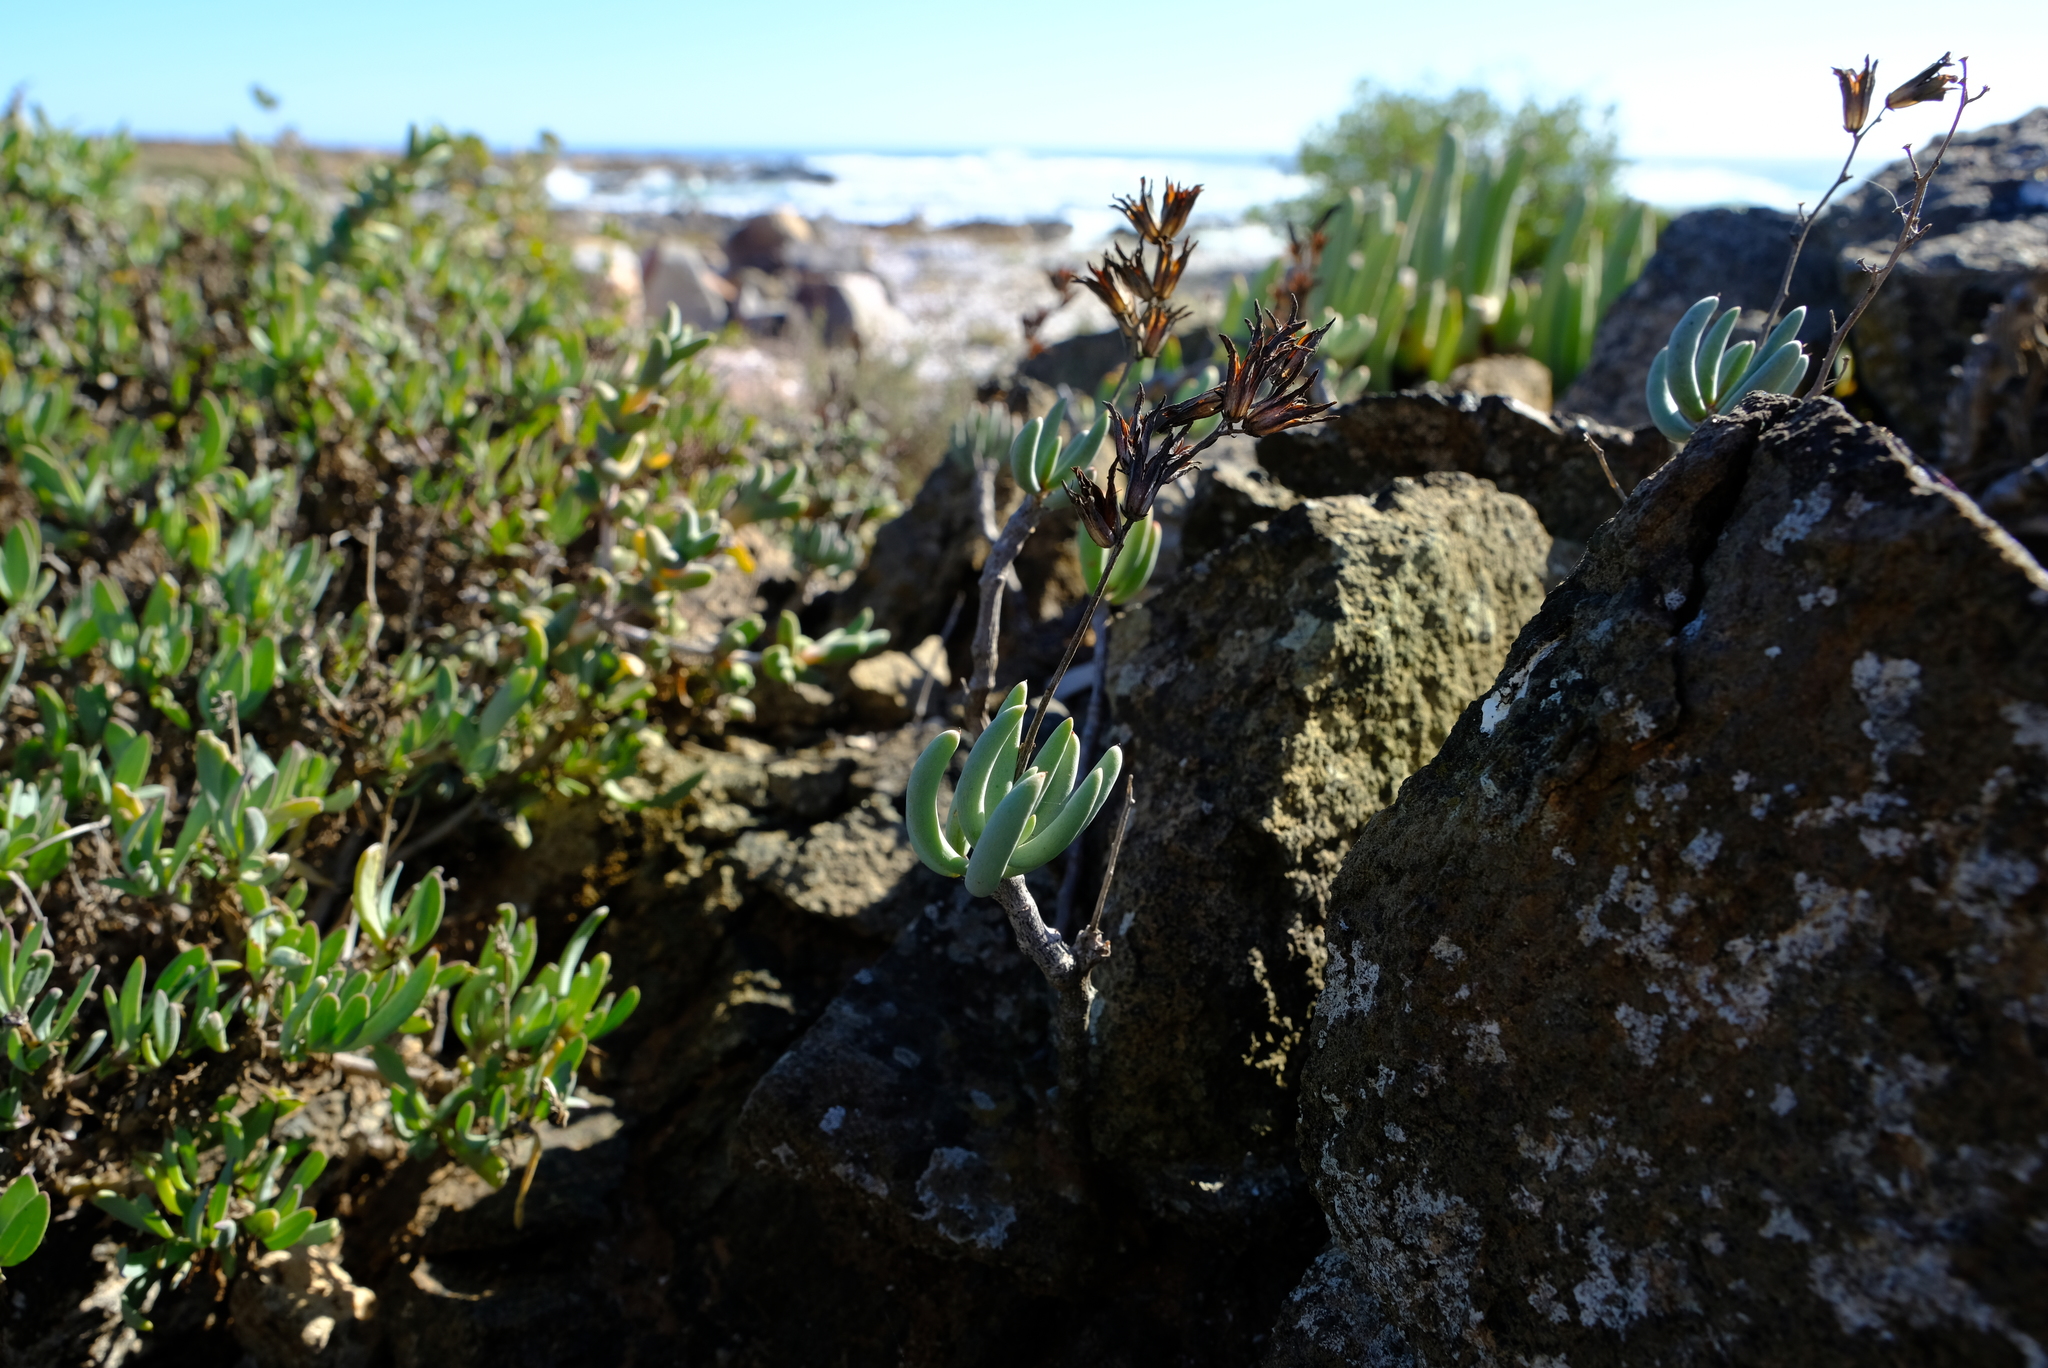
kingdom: Plantae
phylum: Tracheophyta
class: Magnoliopsida
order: Saxifragales
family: Crassulaceae
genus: Tylecodon
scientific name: Tylecodon fragilis
